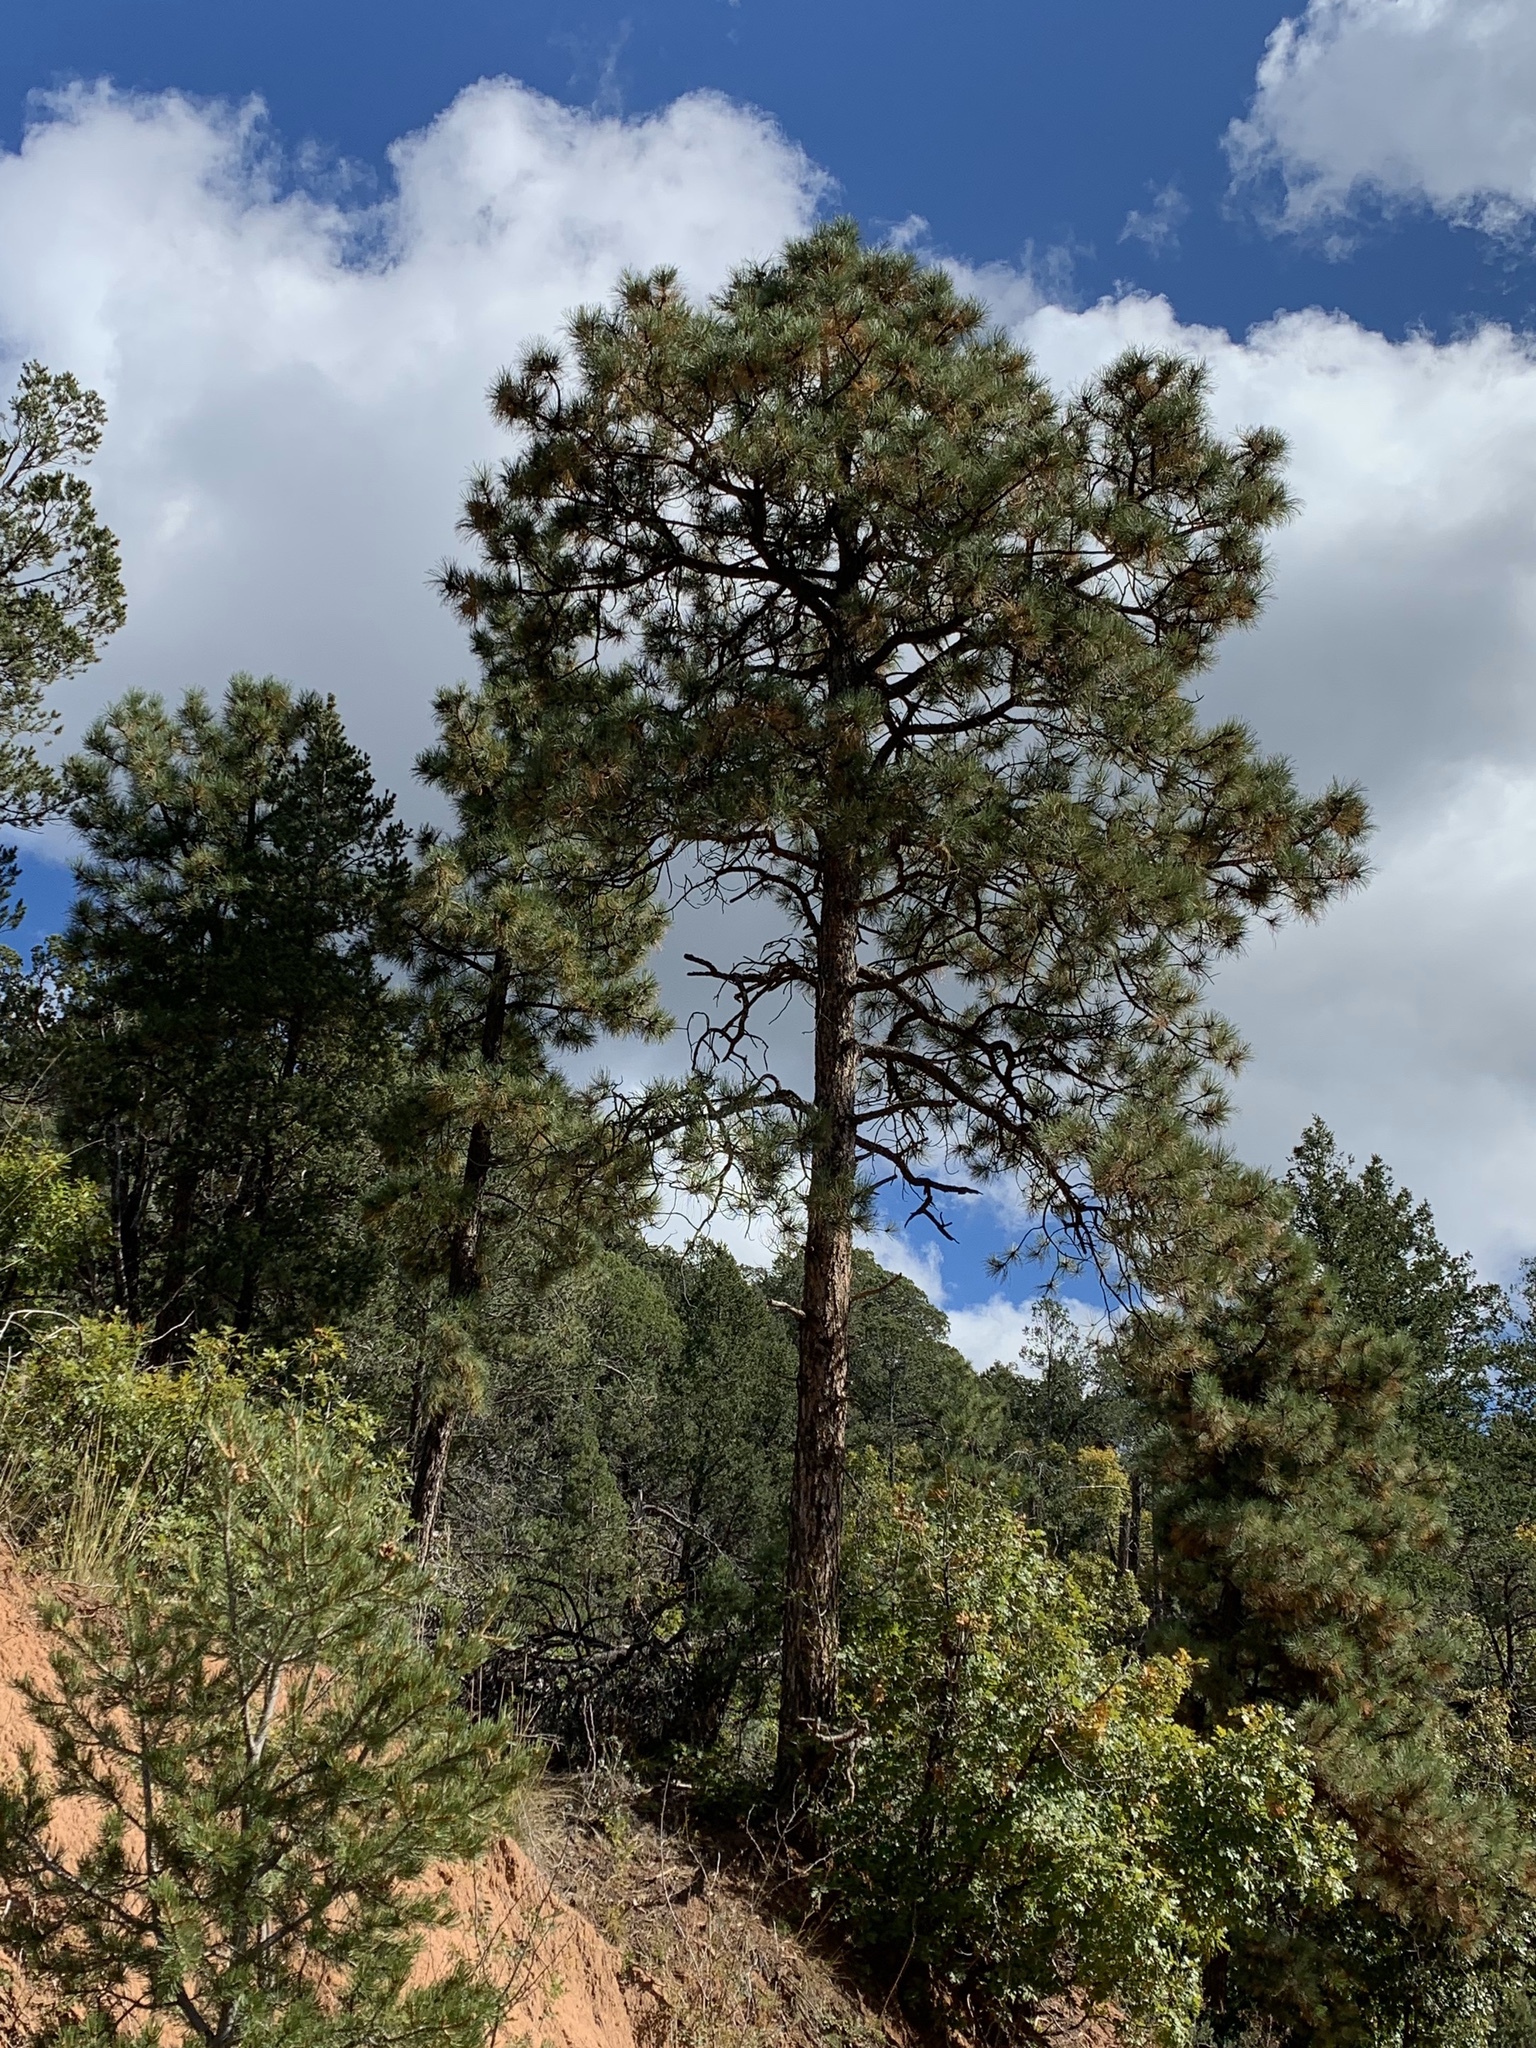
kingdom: Plantae
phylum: Tracheophyta
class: Pinopsida
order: Pinales
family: Pinaceae
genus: Pinus
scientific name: Pinus ponderosa
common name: Western yellow-pine
